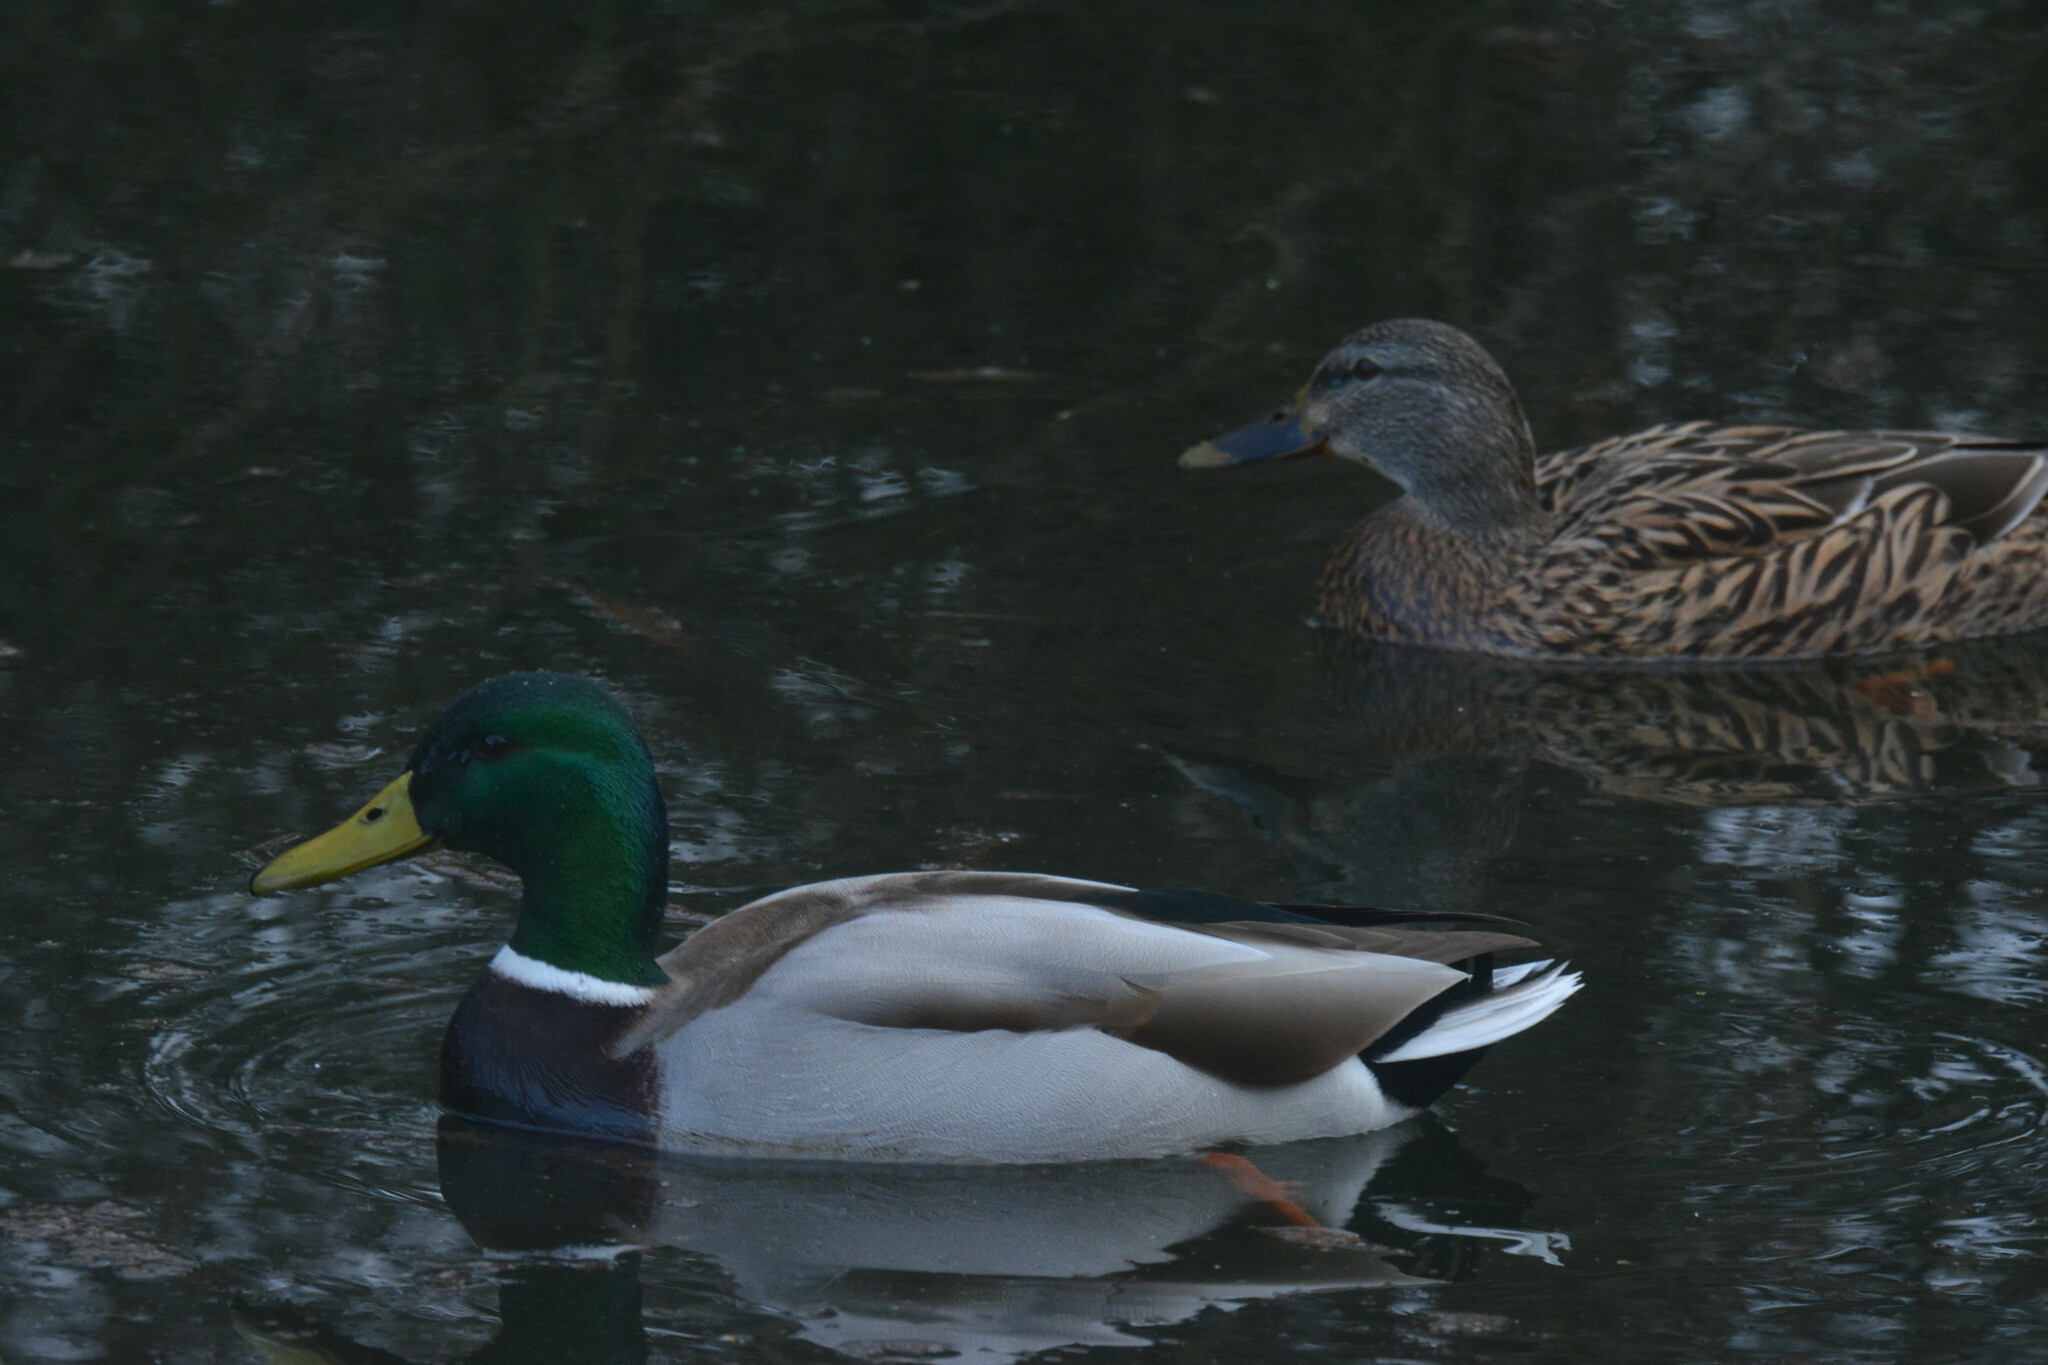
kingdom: Animalia
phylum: Chordata
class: Aves
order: Anseriformes
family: Anatidae
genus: Anas
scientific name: Anas platyrhynchos
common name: Mallard
